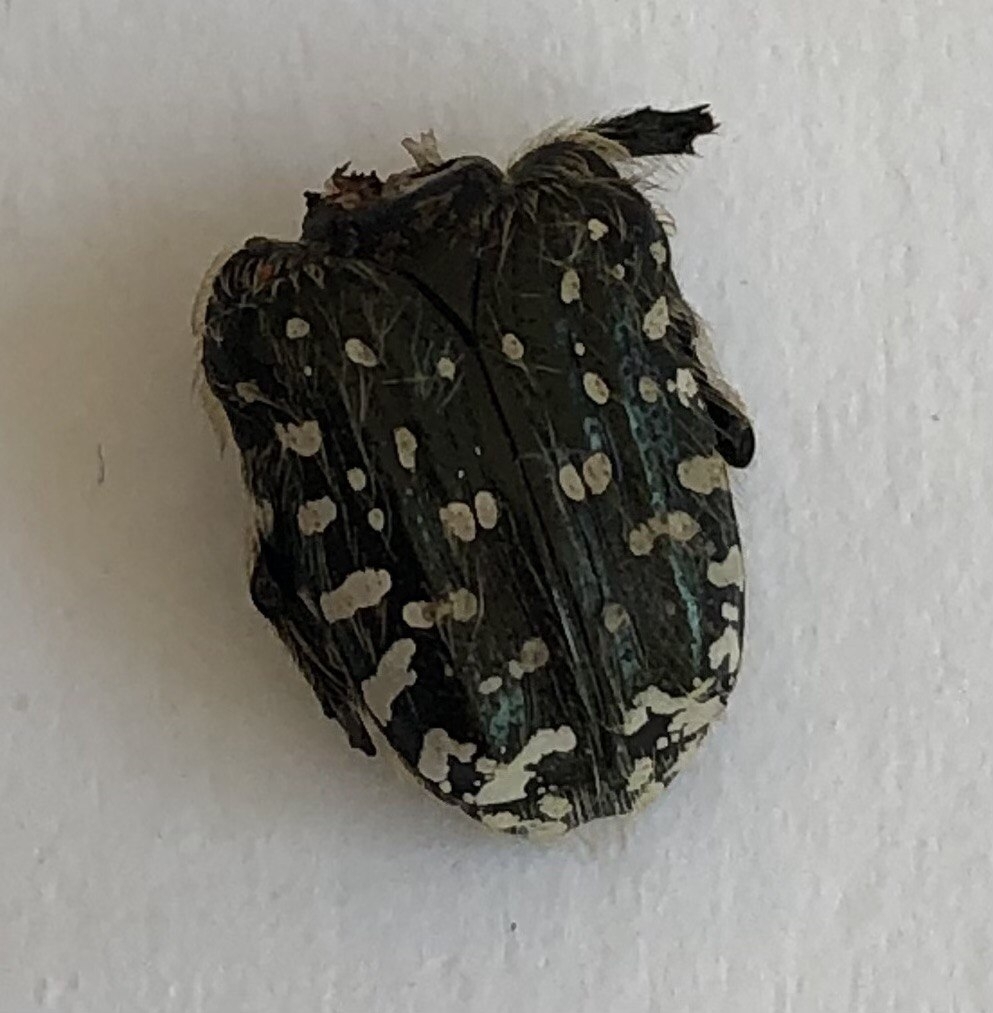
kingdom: Animalia
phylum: Arthropoda
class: Insecta
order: Coleoptera
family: Scarabaeidae
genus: Oxythyrea
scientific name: Oxythyrea funesta
